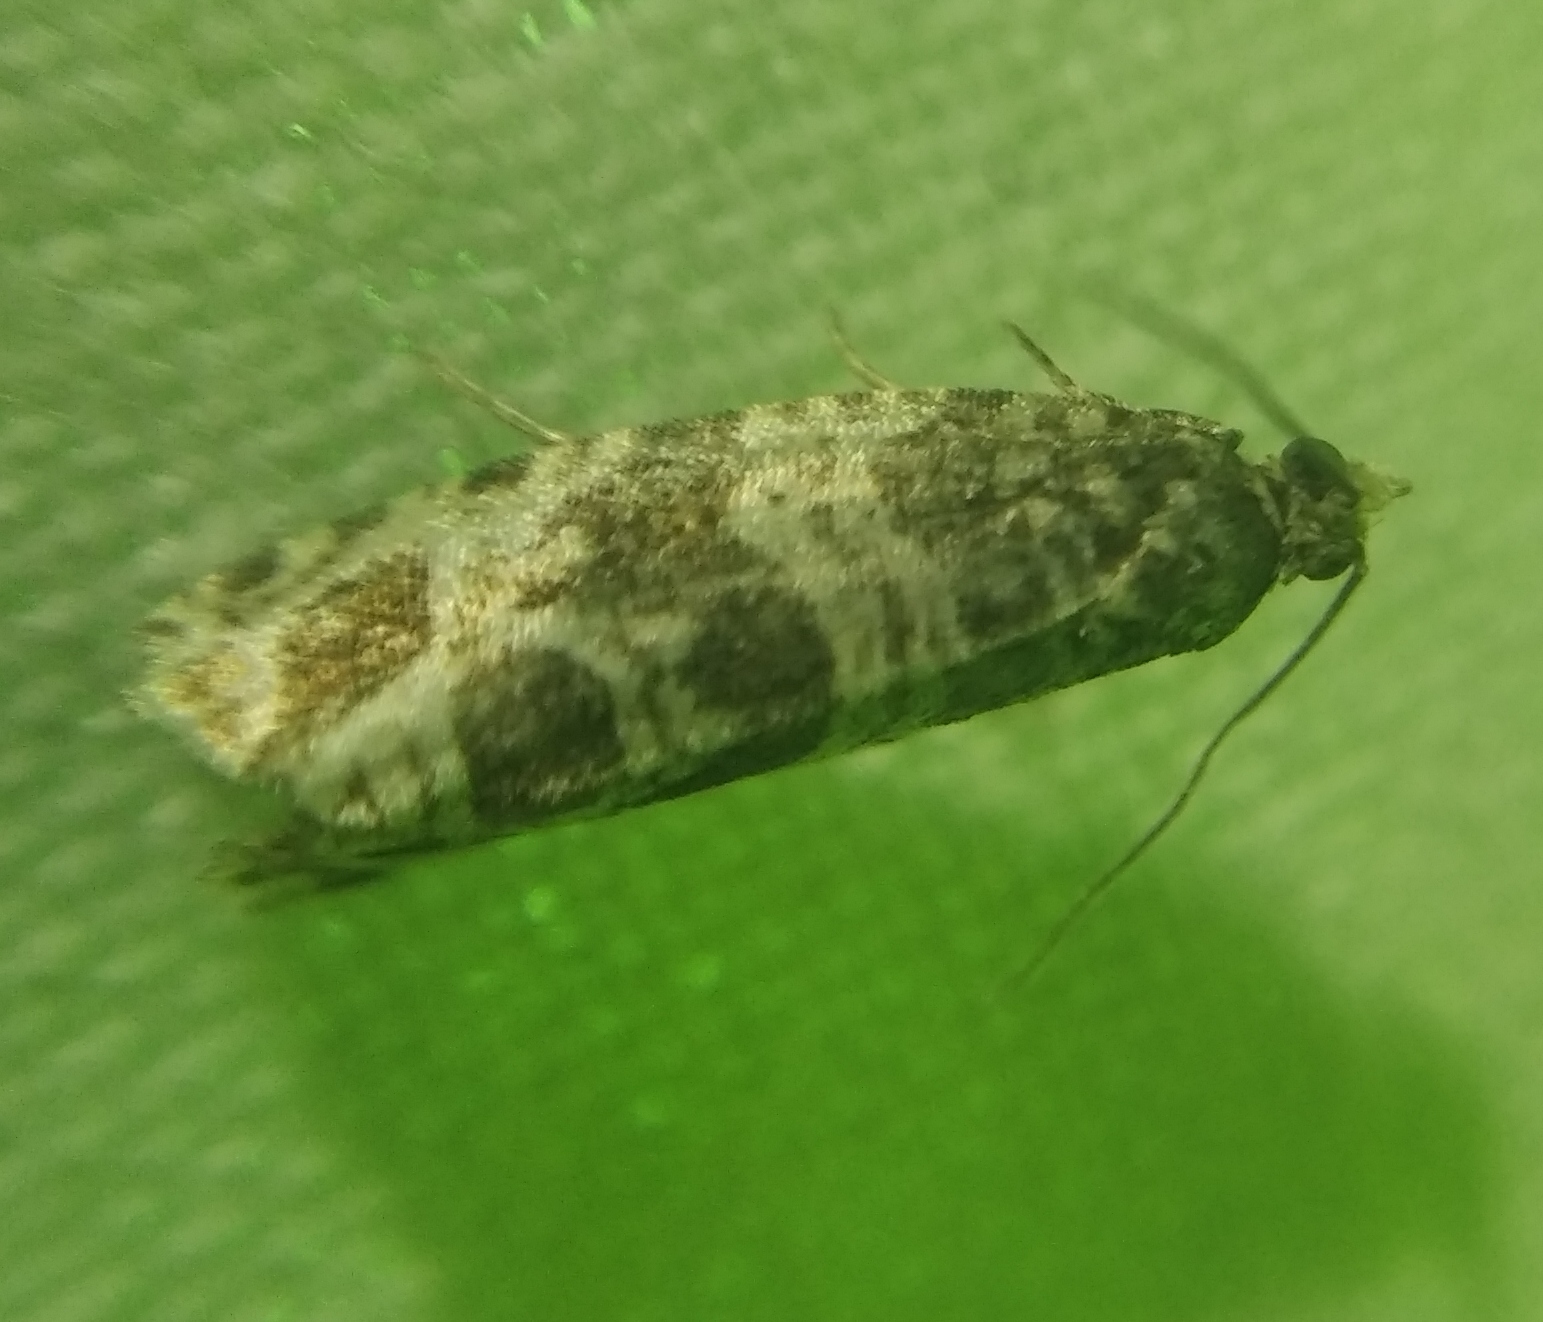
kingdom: Animalia
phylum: Arthropoda
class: Insecta
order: Lepidoptera
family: Tortricidae
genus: Syricoris
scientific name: Syricoris rivulana
